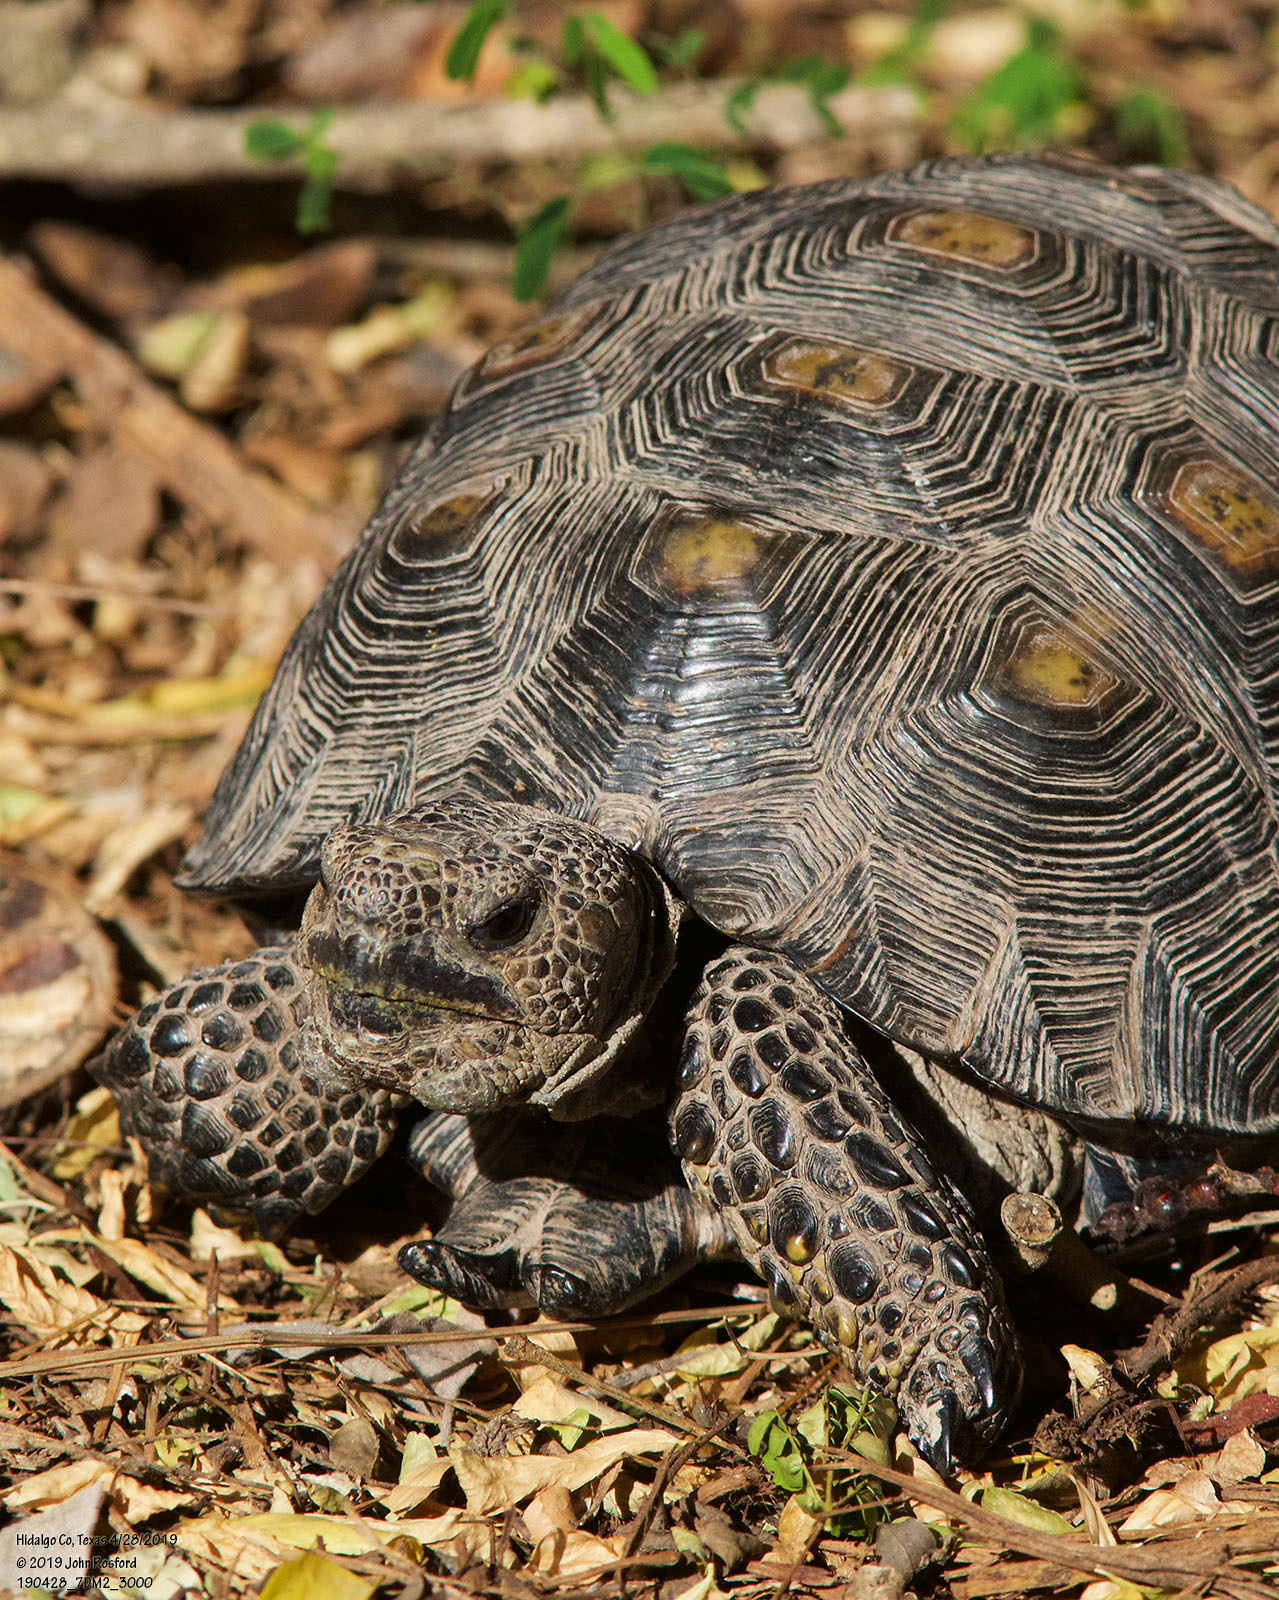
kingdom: Animalia
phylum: Chordata
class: Testudines
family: Testudinidae
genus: Gopherus
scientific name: Gopherus berlandieri
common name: Texas (gopher )tortoise
